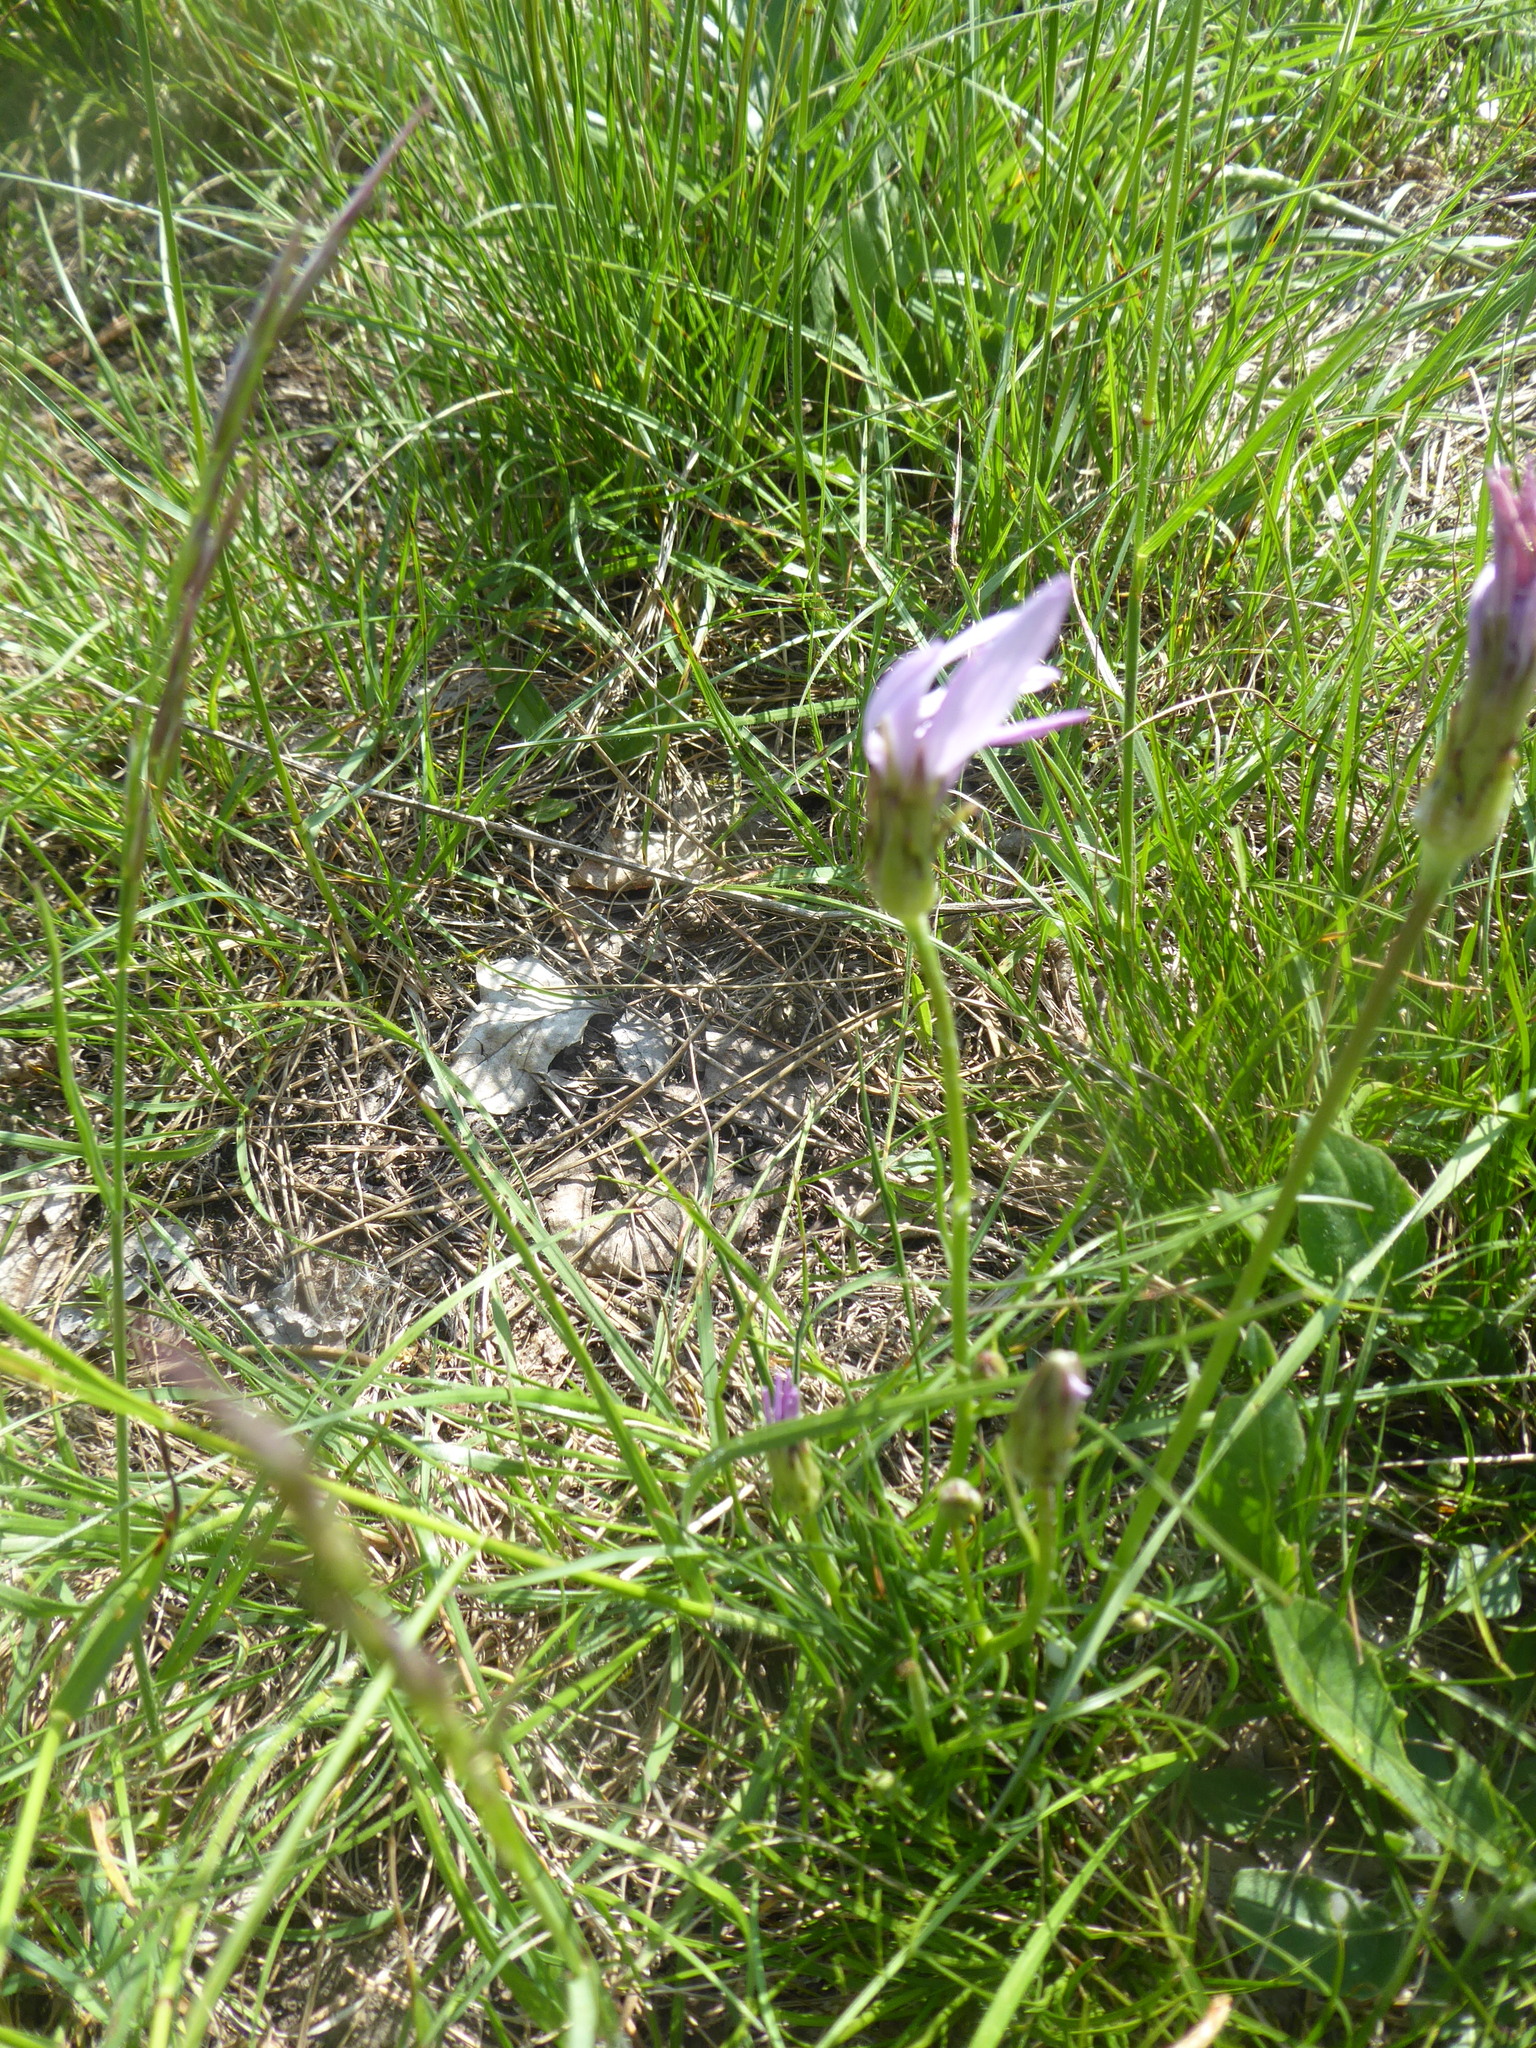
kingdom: Plantae
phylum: Tracheophyta
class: Magnoliopsida
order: Asterales
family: Asteraceae
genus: Scorzonera
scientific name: Scorzonera purpurea
